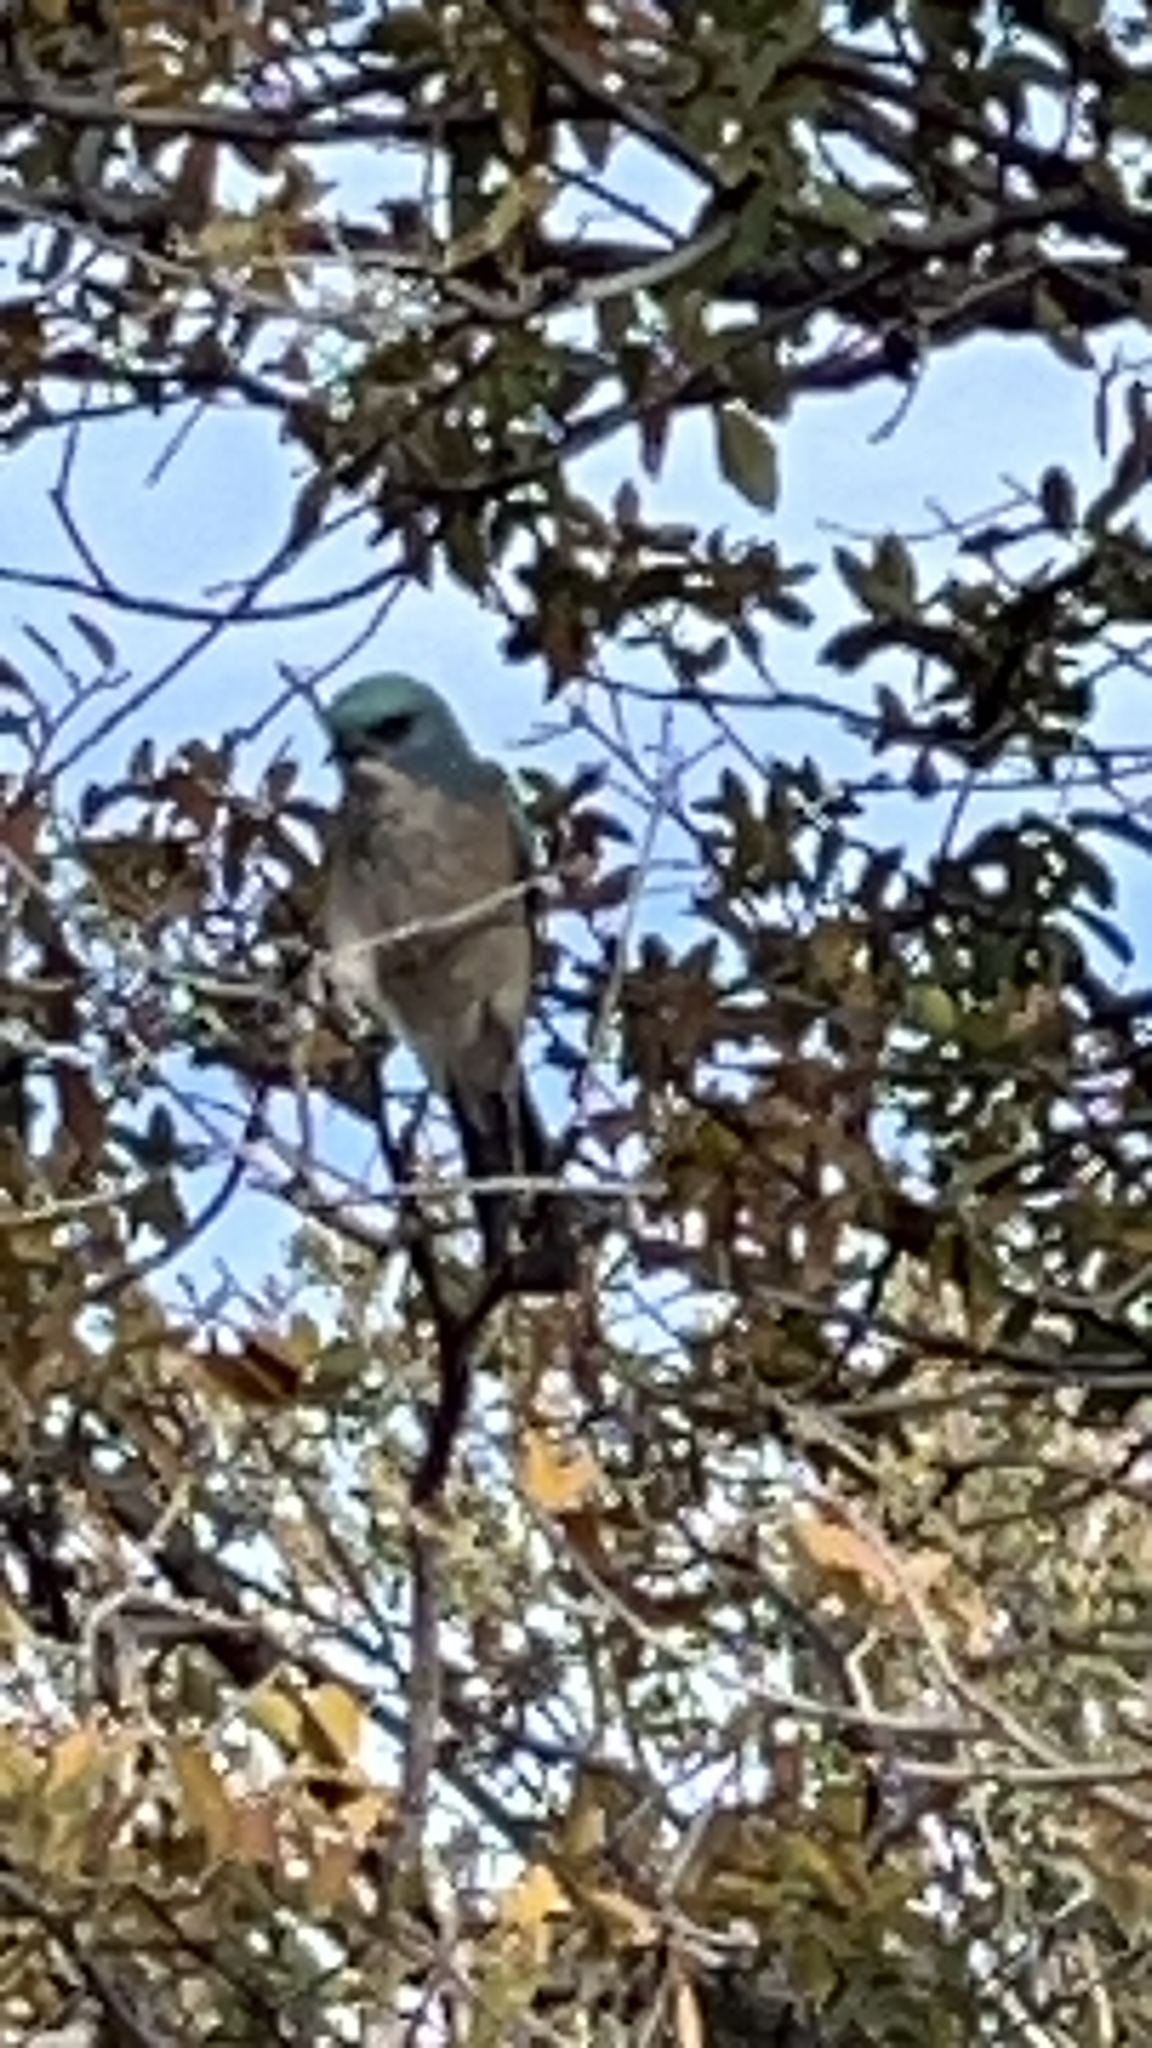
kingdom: Animalia
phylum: Chordata
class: Aves
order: Passeriformes
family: Corvidae
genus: Aphelocoma
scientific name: Aphelocoma wollweberi
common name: Mexican jay
